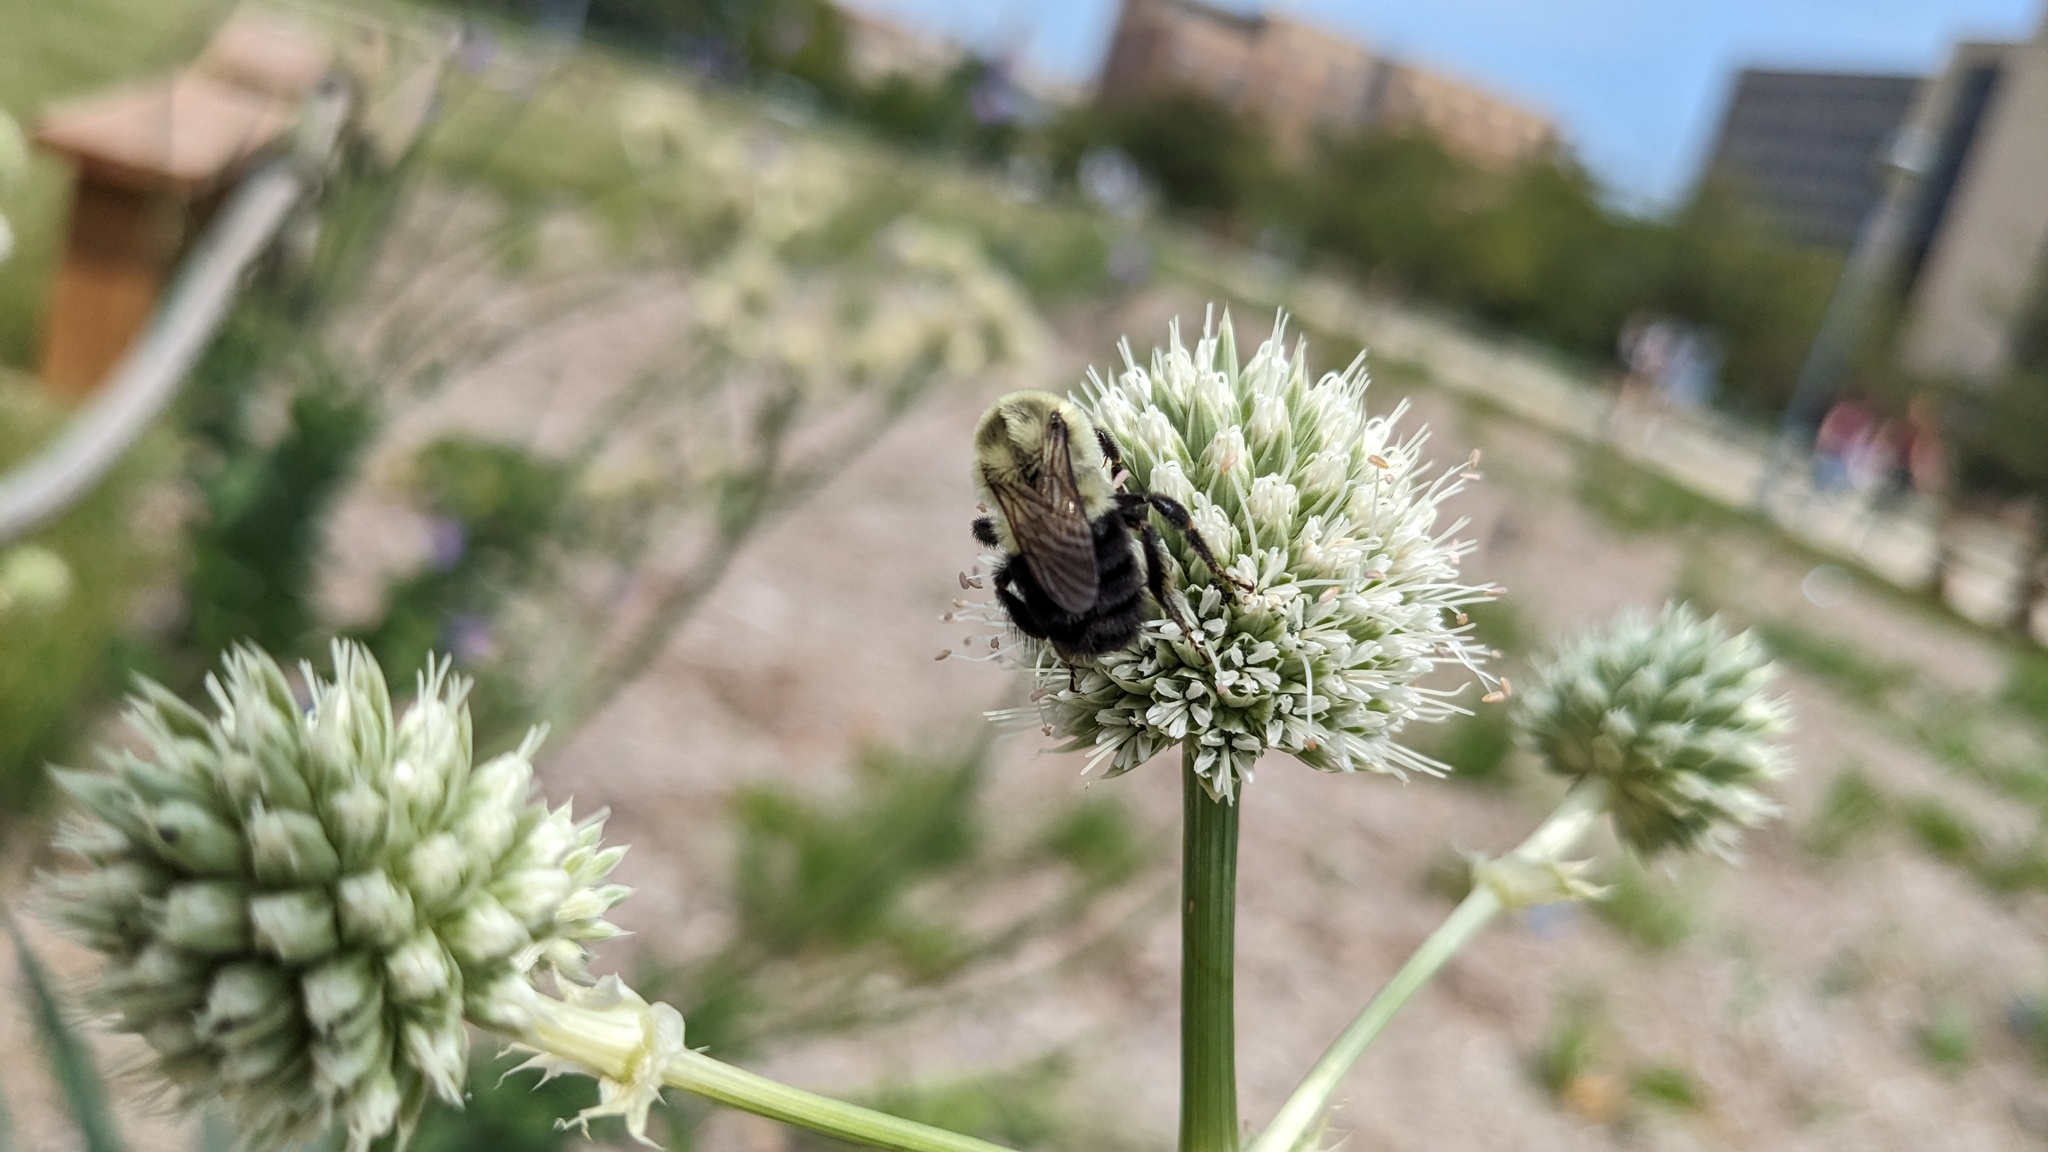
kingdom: Animalia
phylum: Arthropoda
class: Insecta
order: Hymenoptera
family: Apidae
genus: Bombus
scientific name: Bombus impatiens
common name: Common eastern bumble bee
